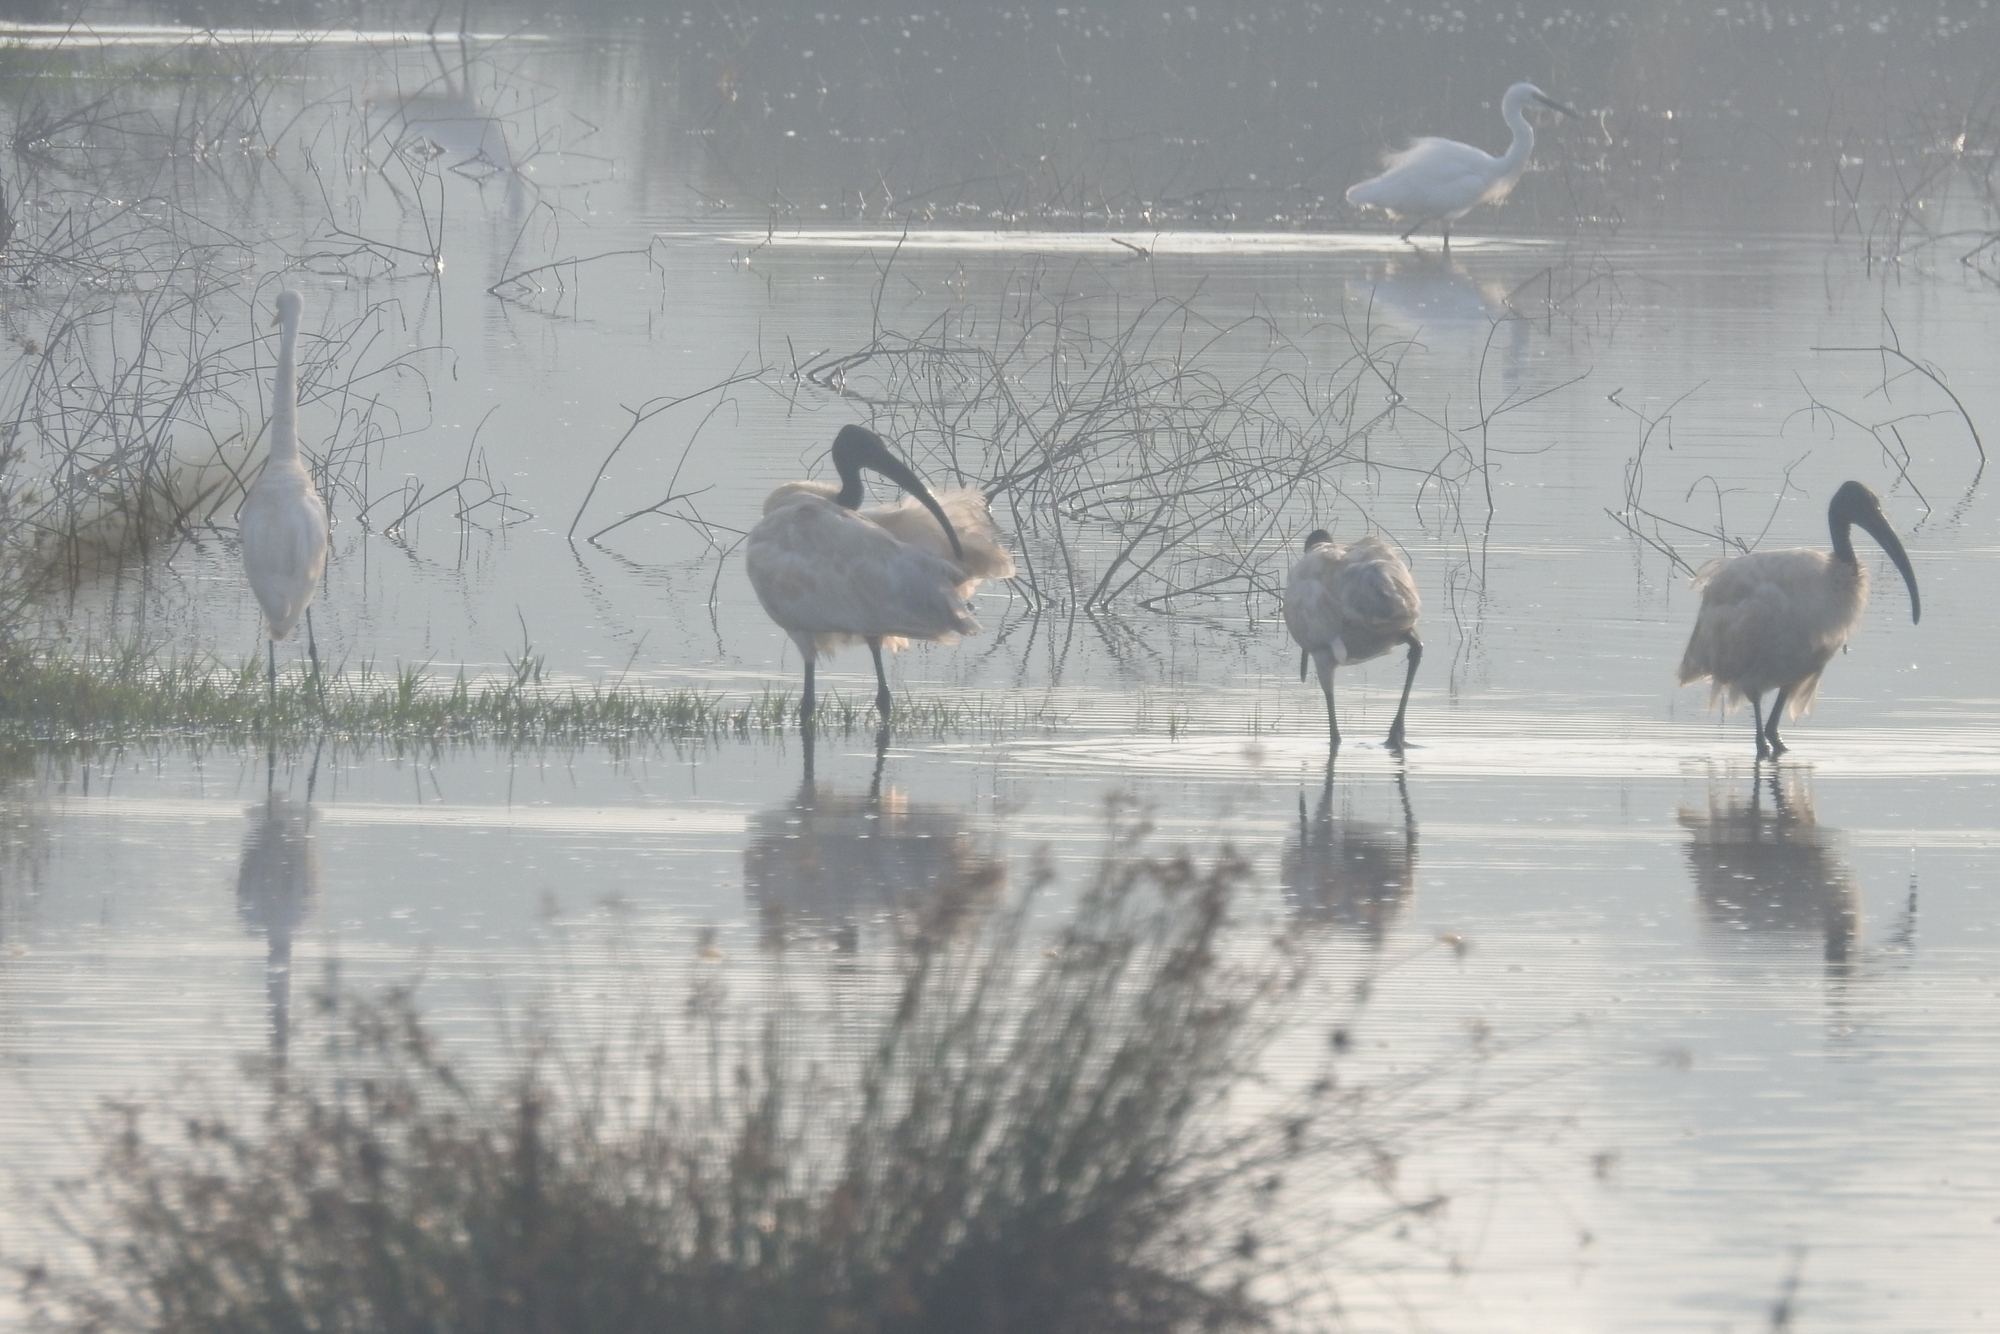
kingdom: Animalia
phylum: Chordata
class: Aves
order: Pelecaniformes
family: Threskiornithidae
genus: Threskiornis
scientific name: Threskiornis melanocephalus
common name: Black-headed ibis
